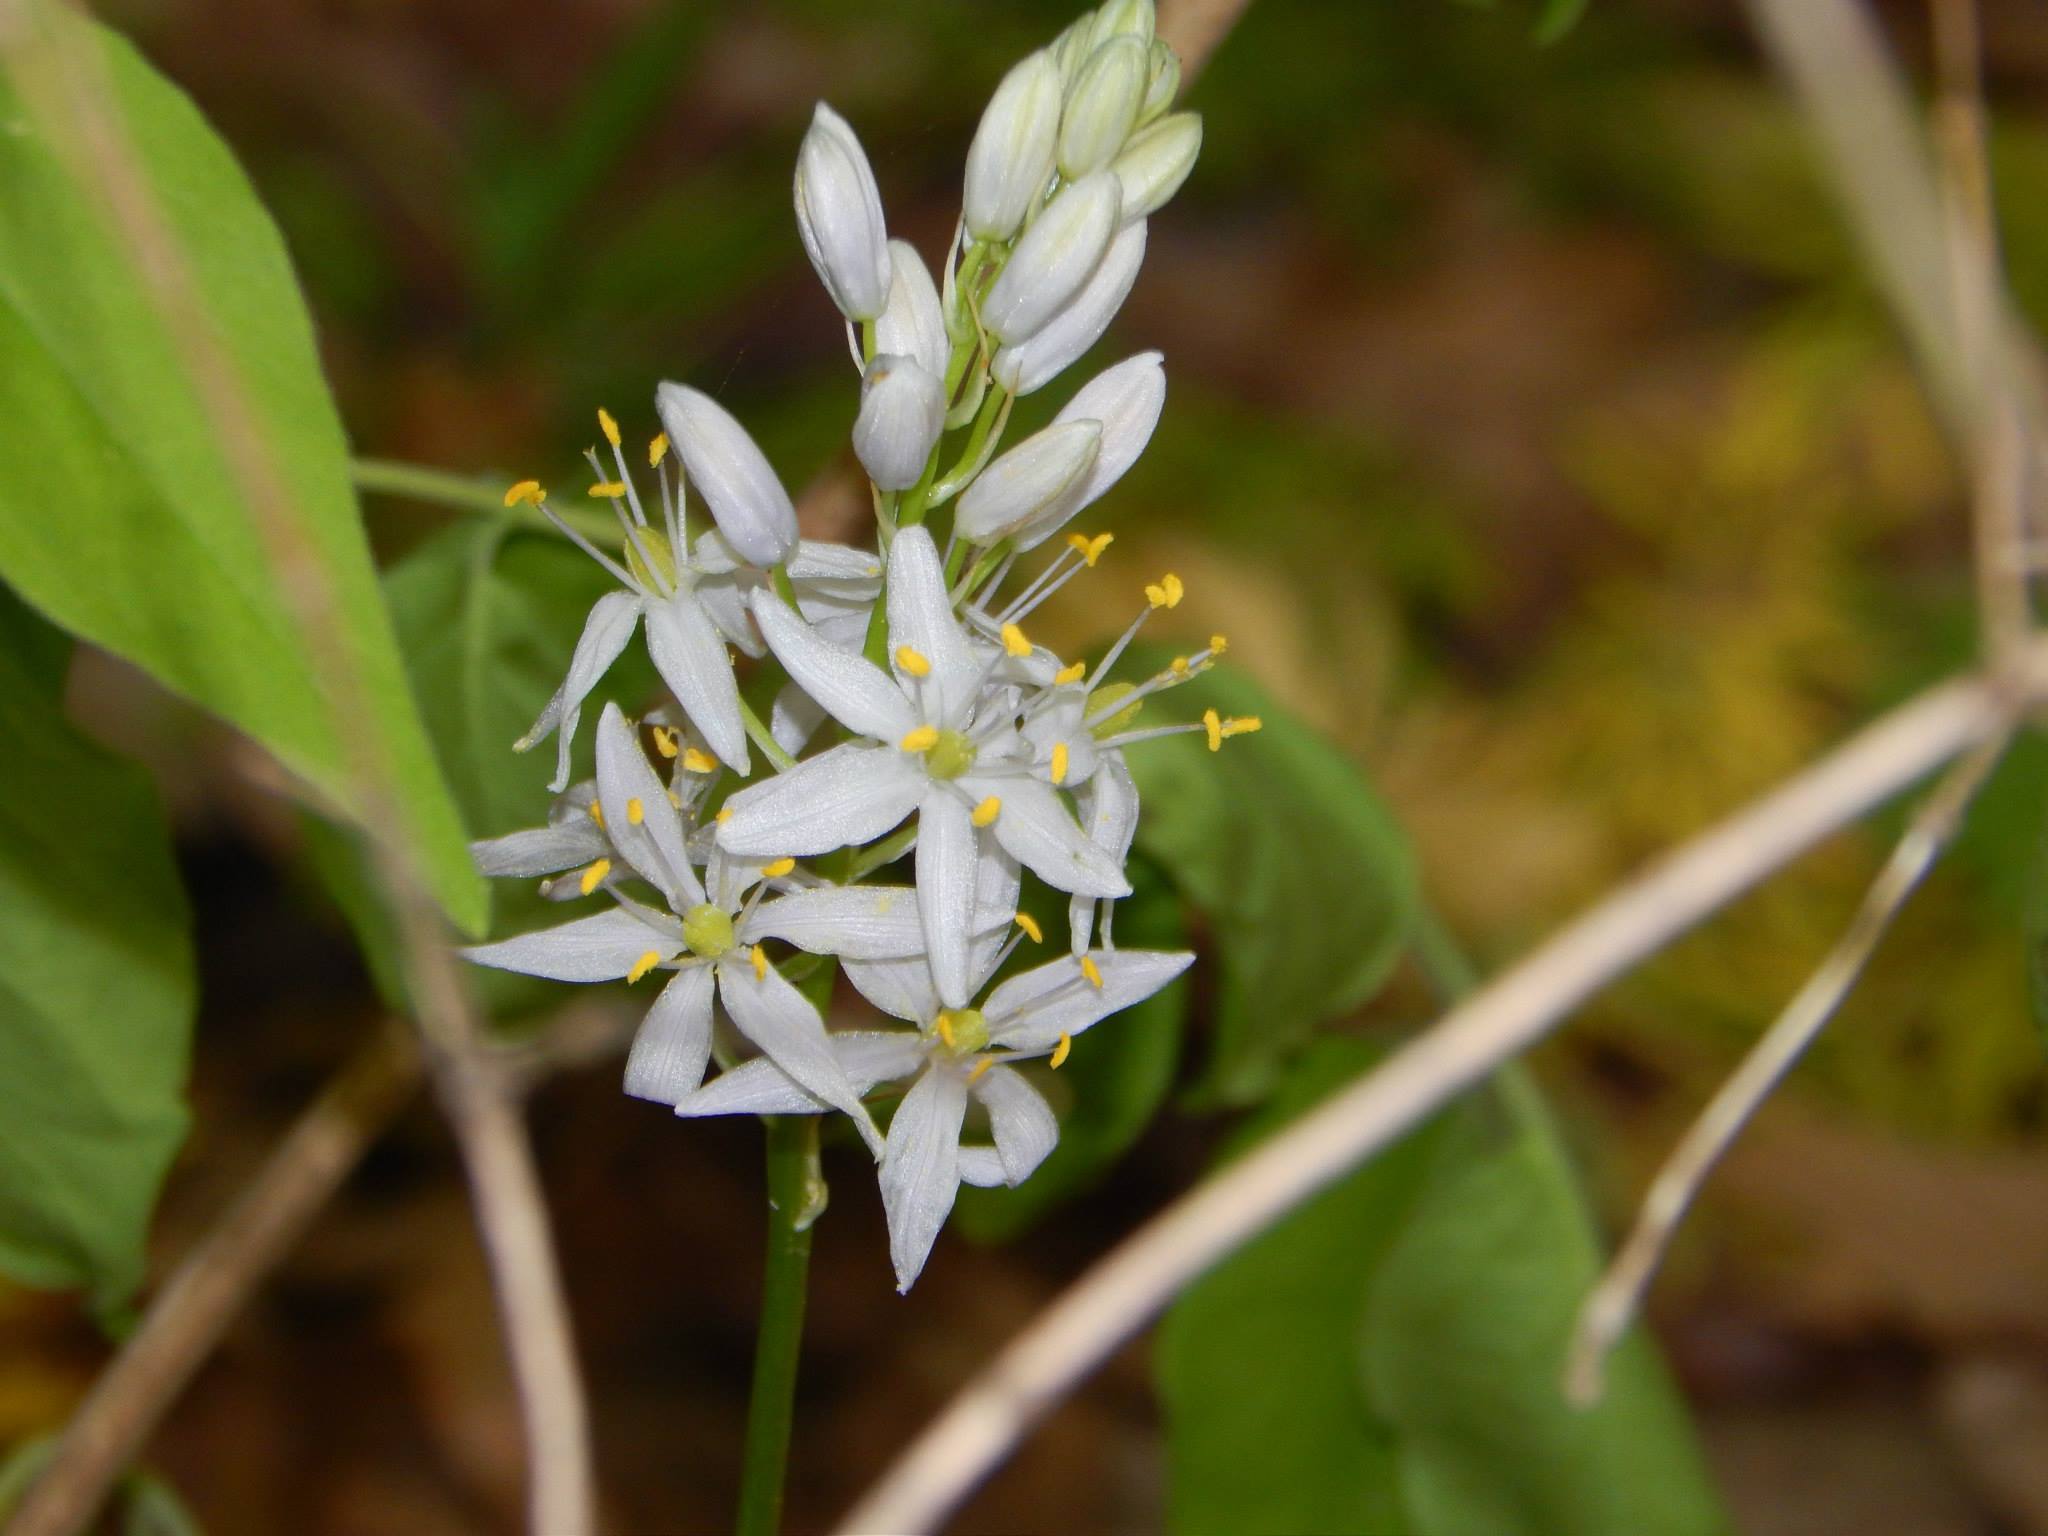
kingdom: Plantae
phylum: Tracheophyta
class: Liliopsida
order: Asparagales
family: Asparagaceae
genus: Camassia
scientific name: Camassia scilloides
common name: Wild hyacinth
